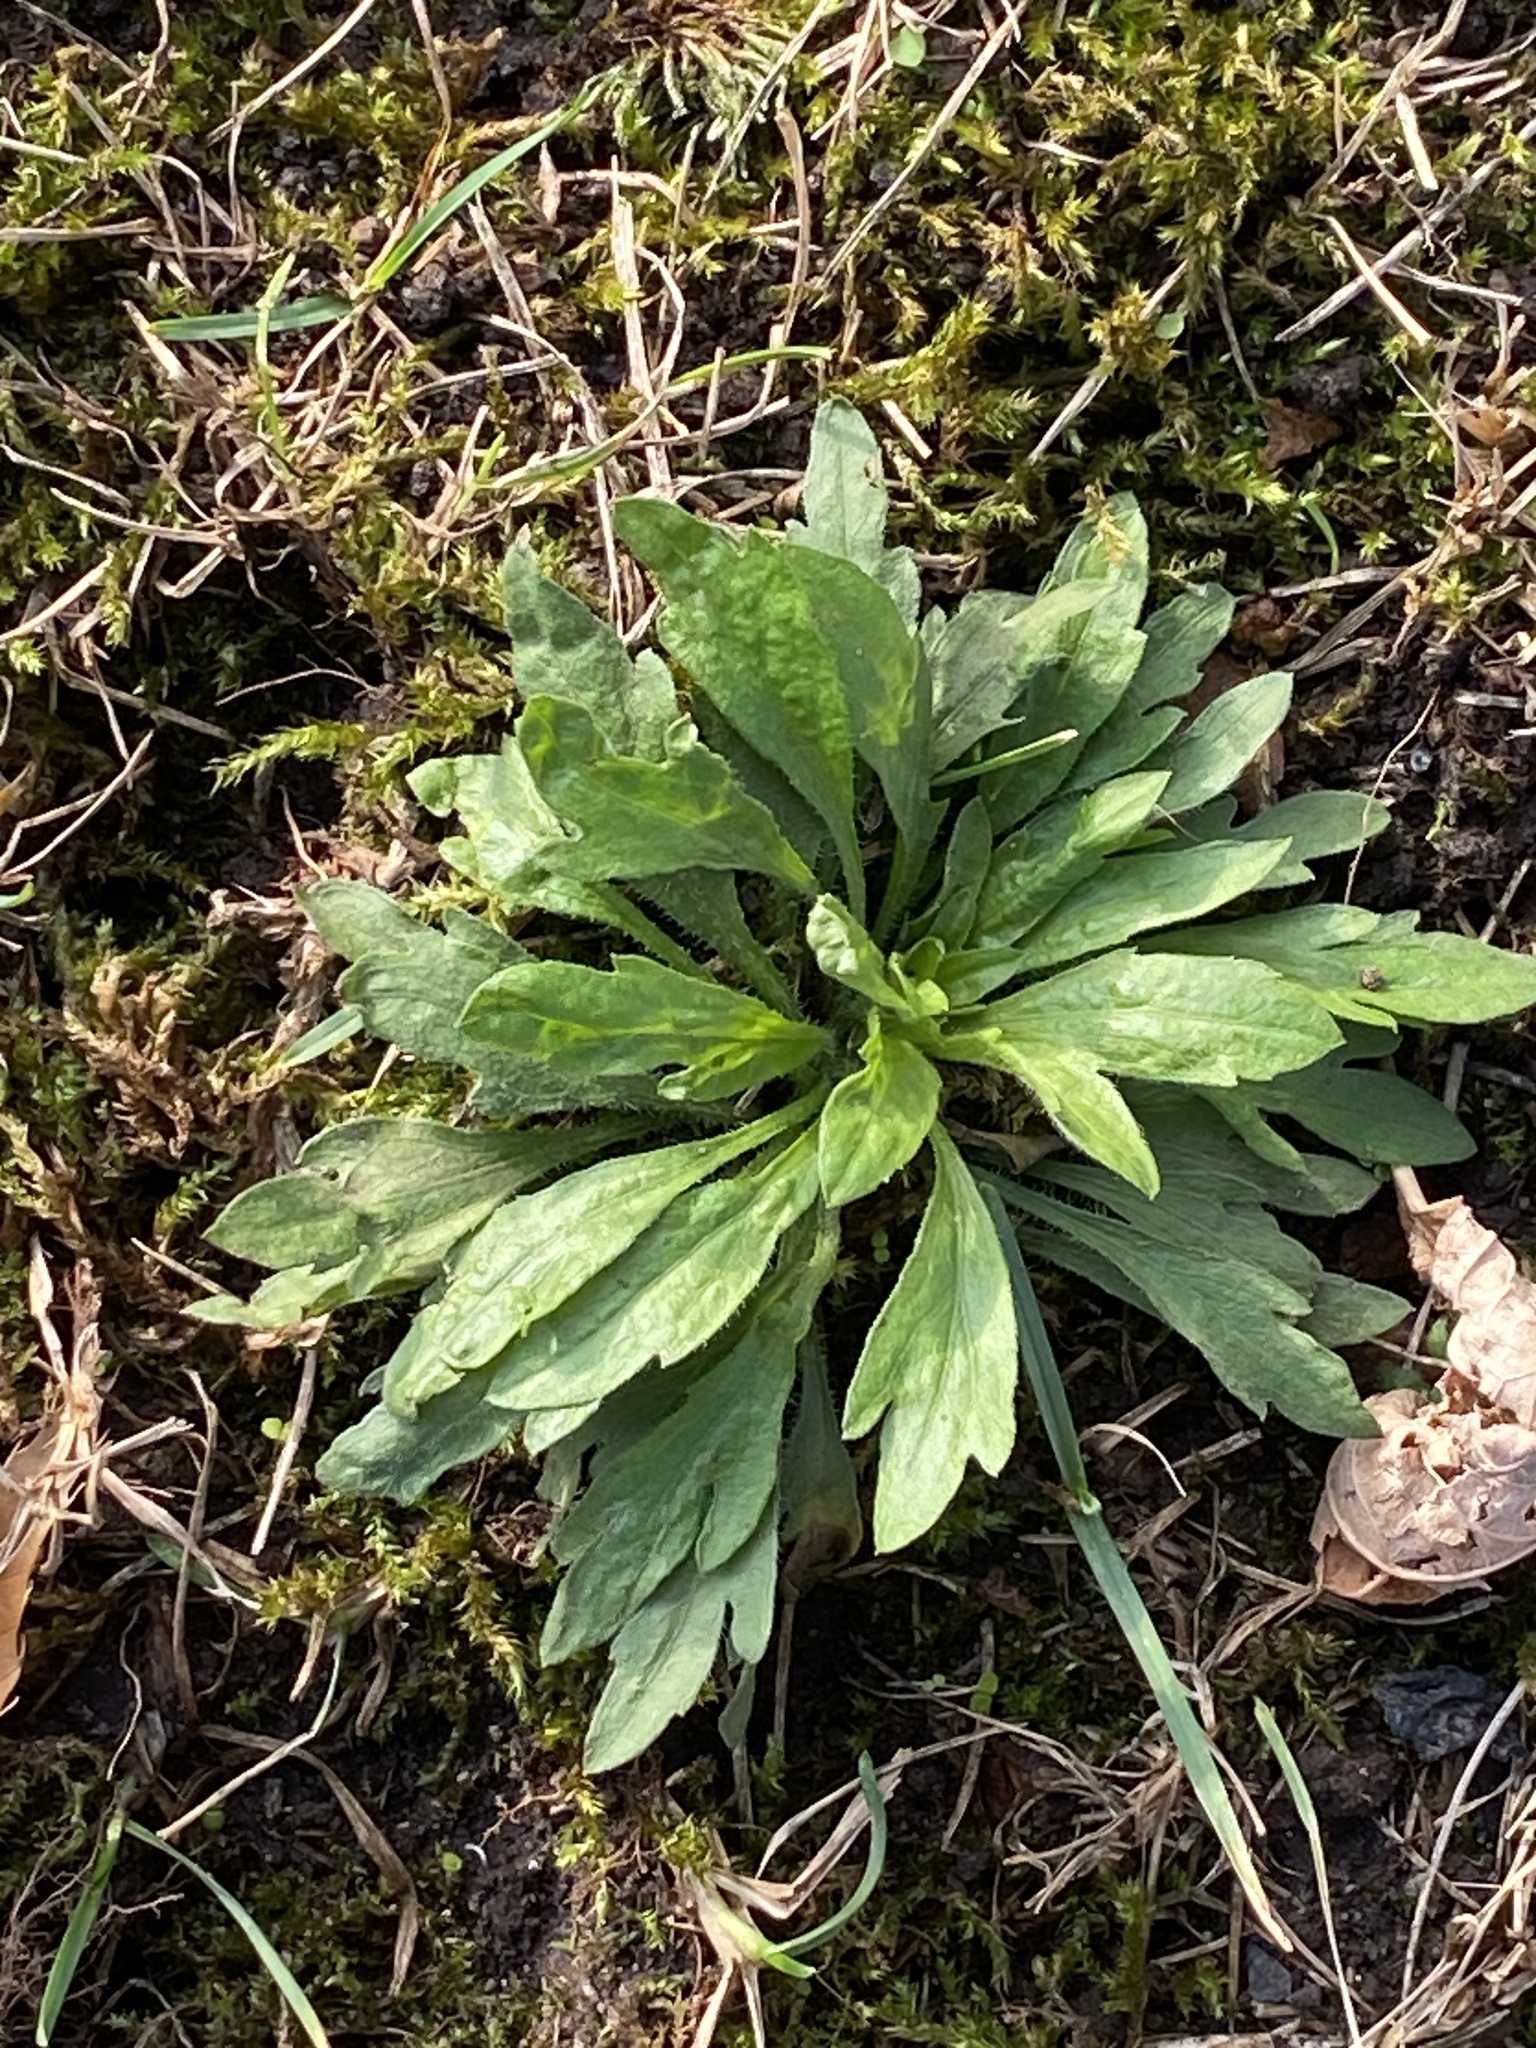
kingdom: Plantae
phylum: Tracheophyta
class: Magnoliopsida
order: Asterales
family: Asteraceae
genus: Erigeron
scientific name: Erigeron canadensis
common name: Canadian fleabane
